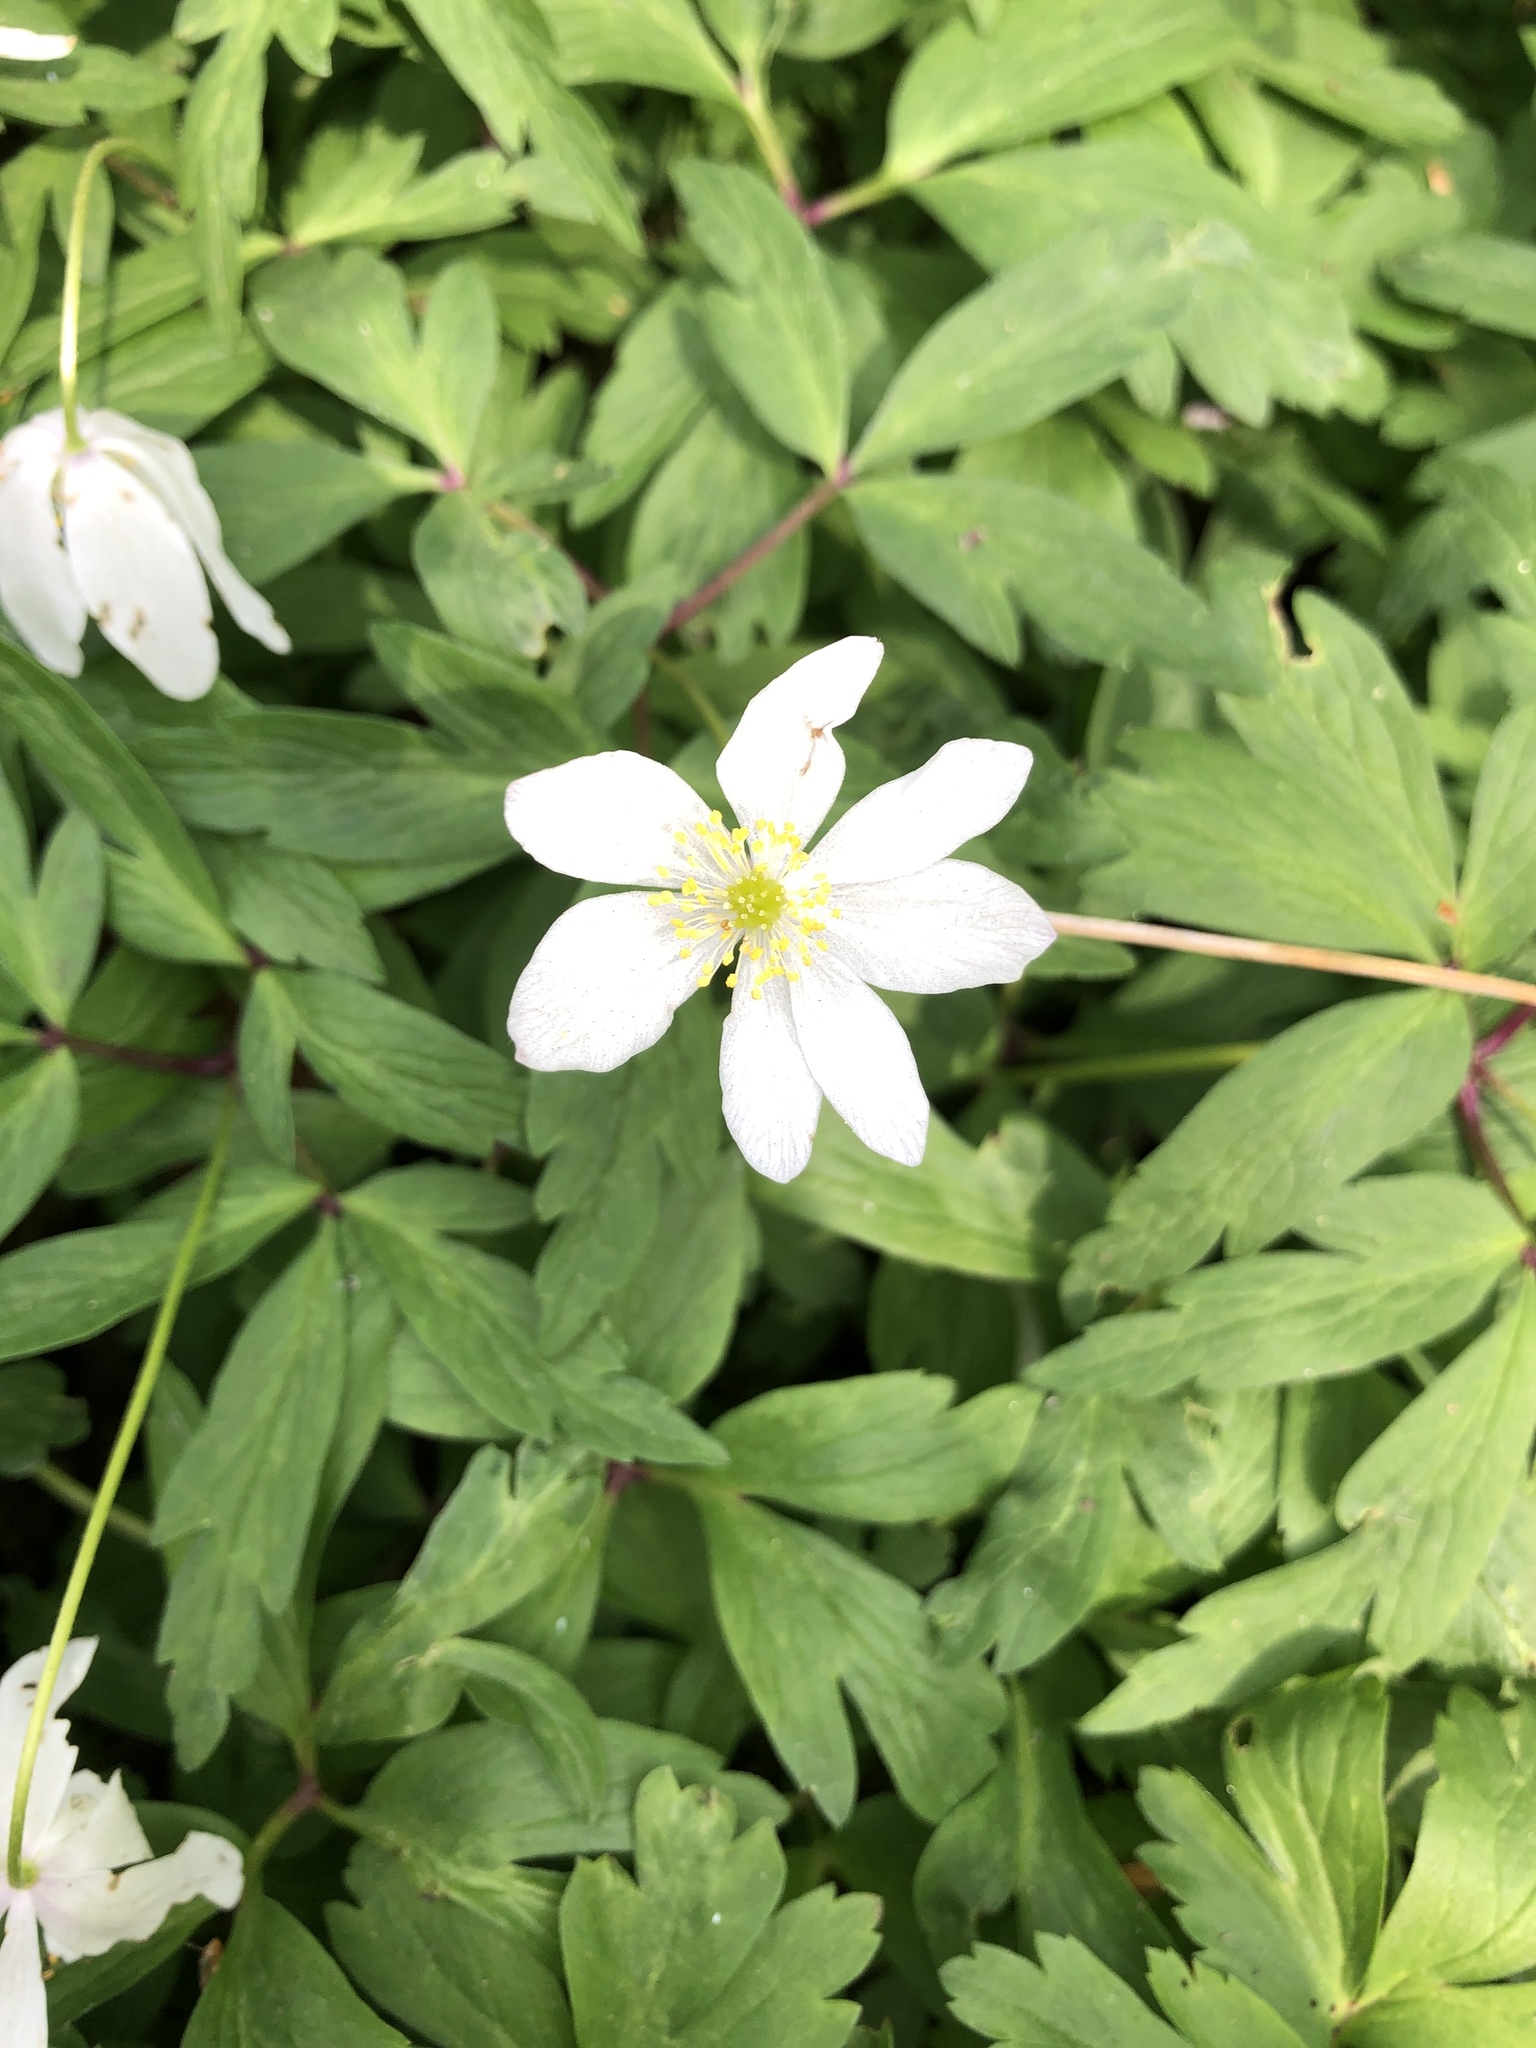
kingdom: Plantae
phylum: Tracheophyta
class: Magnoliopsida
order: Ranunculales
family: Ranunculaceae
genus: Anemone
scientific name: Anemone nemorosa
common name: Wood anemone
